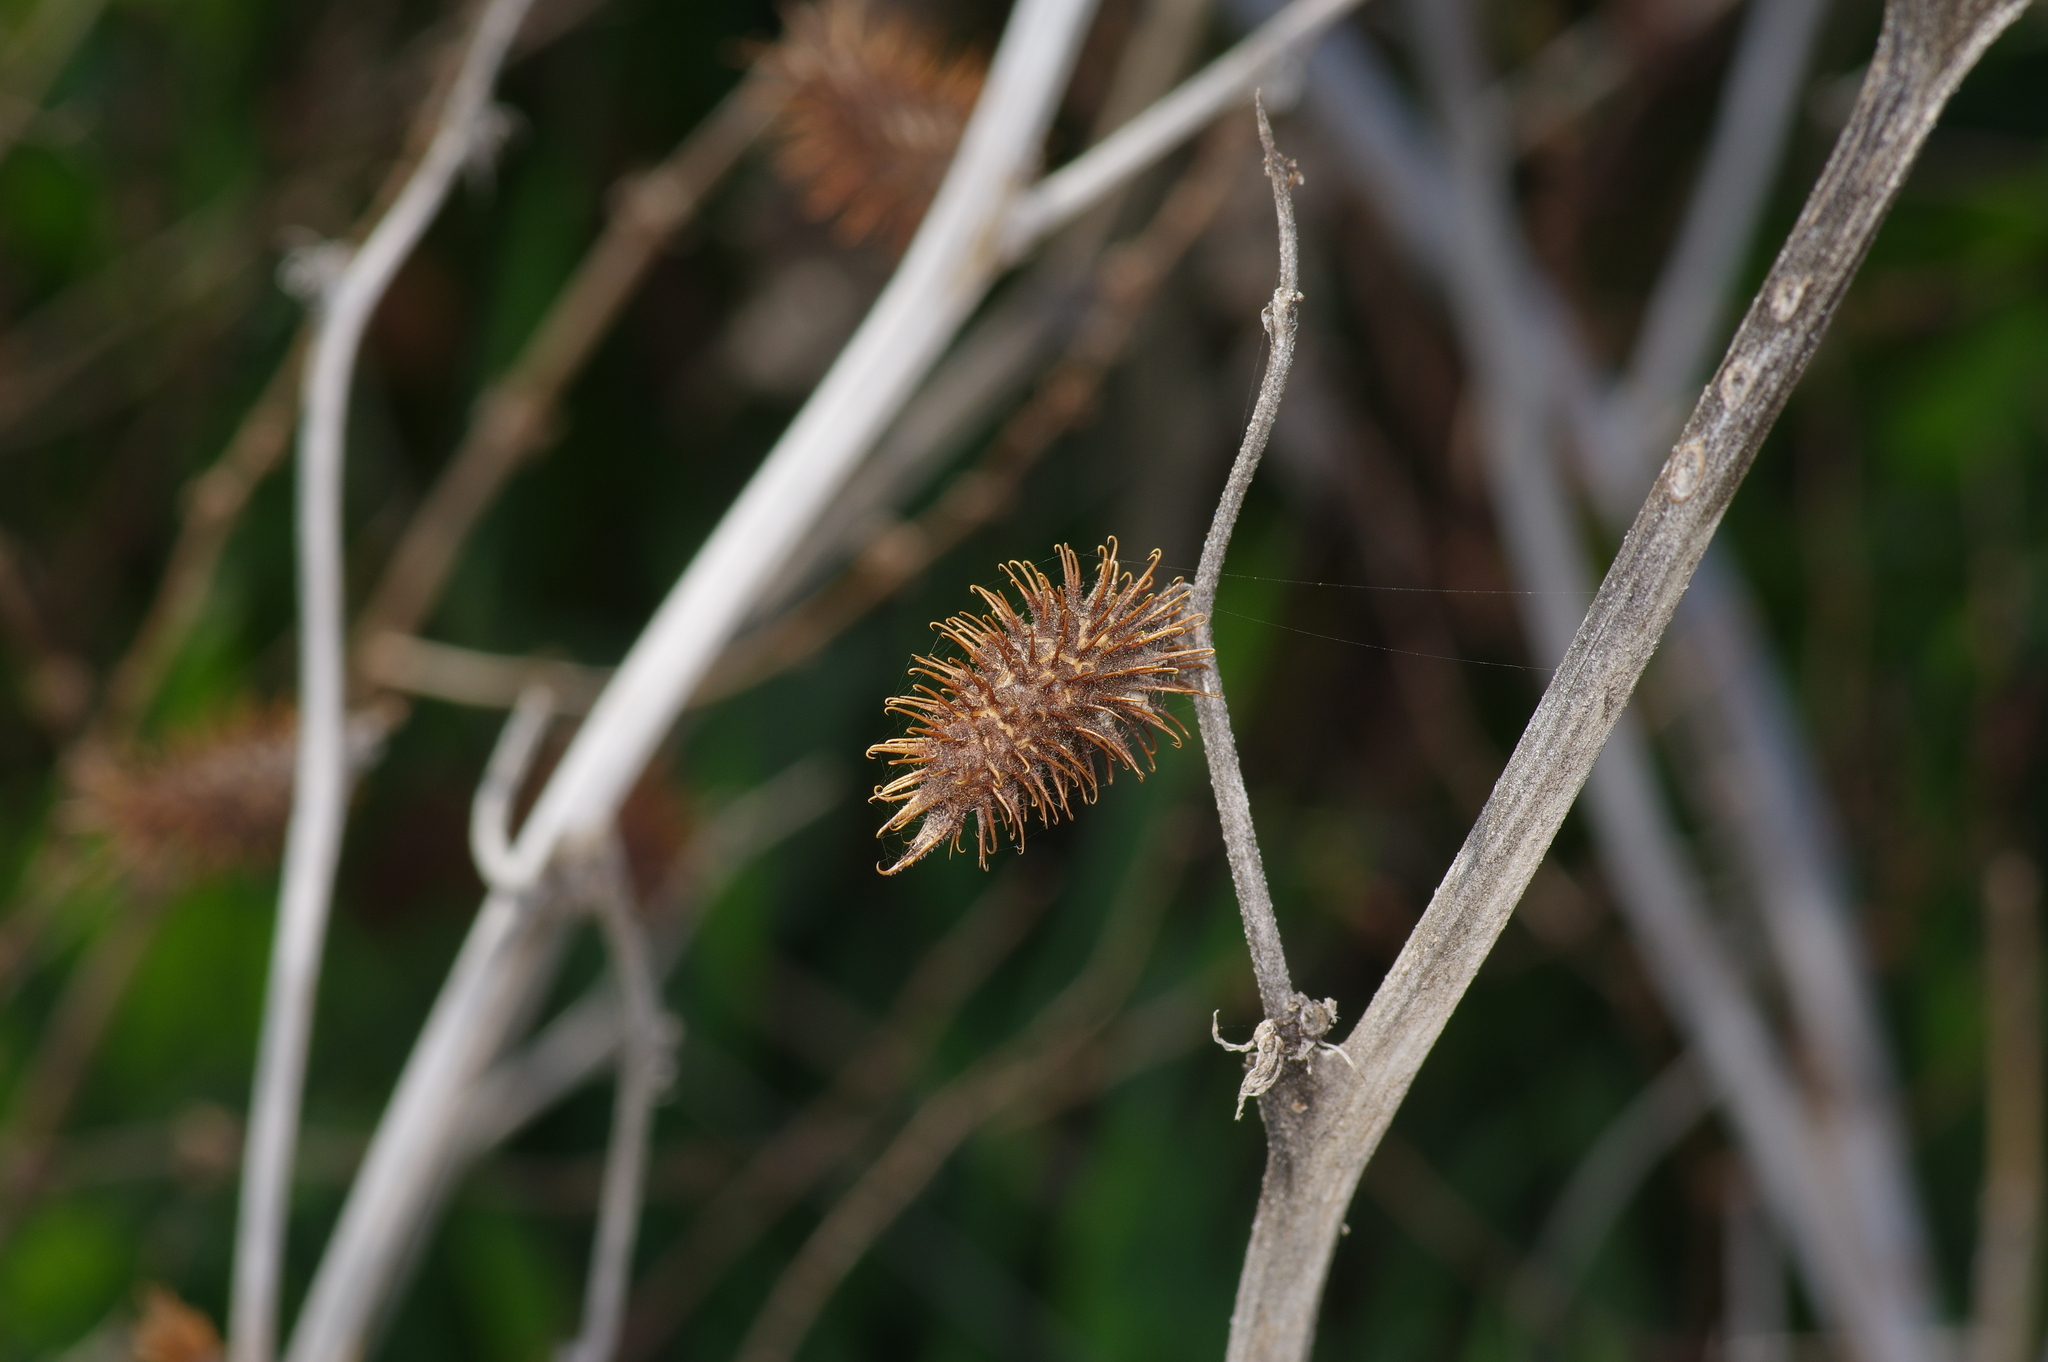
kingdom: Plantae
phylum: Tracheophyta
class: Magnoliopsida
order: Asterales
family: Asteraceae
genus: Xanthium
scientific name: Xanthium strumarium
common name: Rough cocklebur
